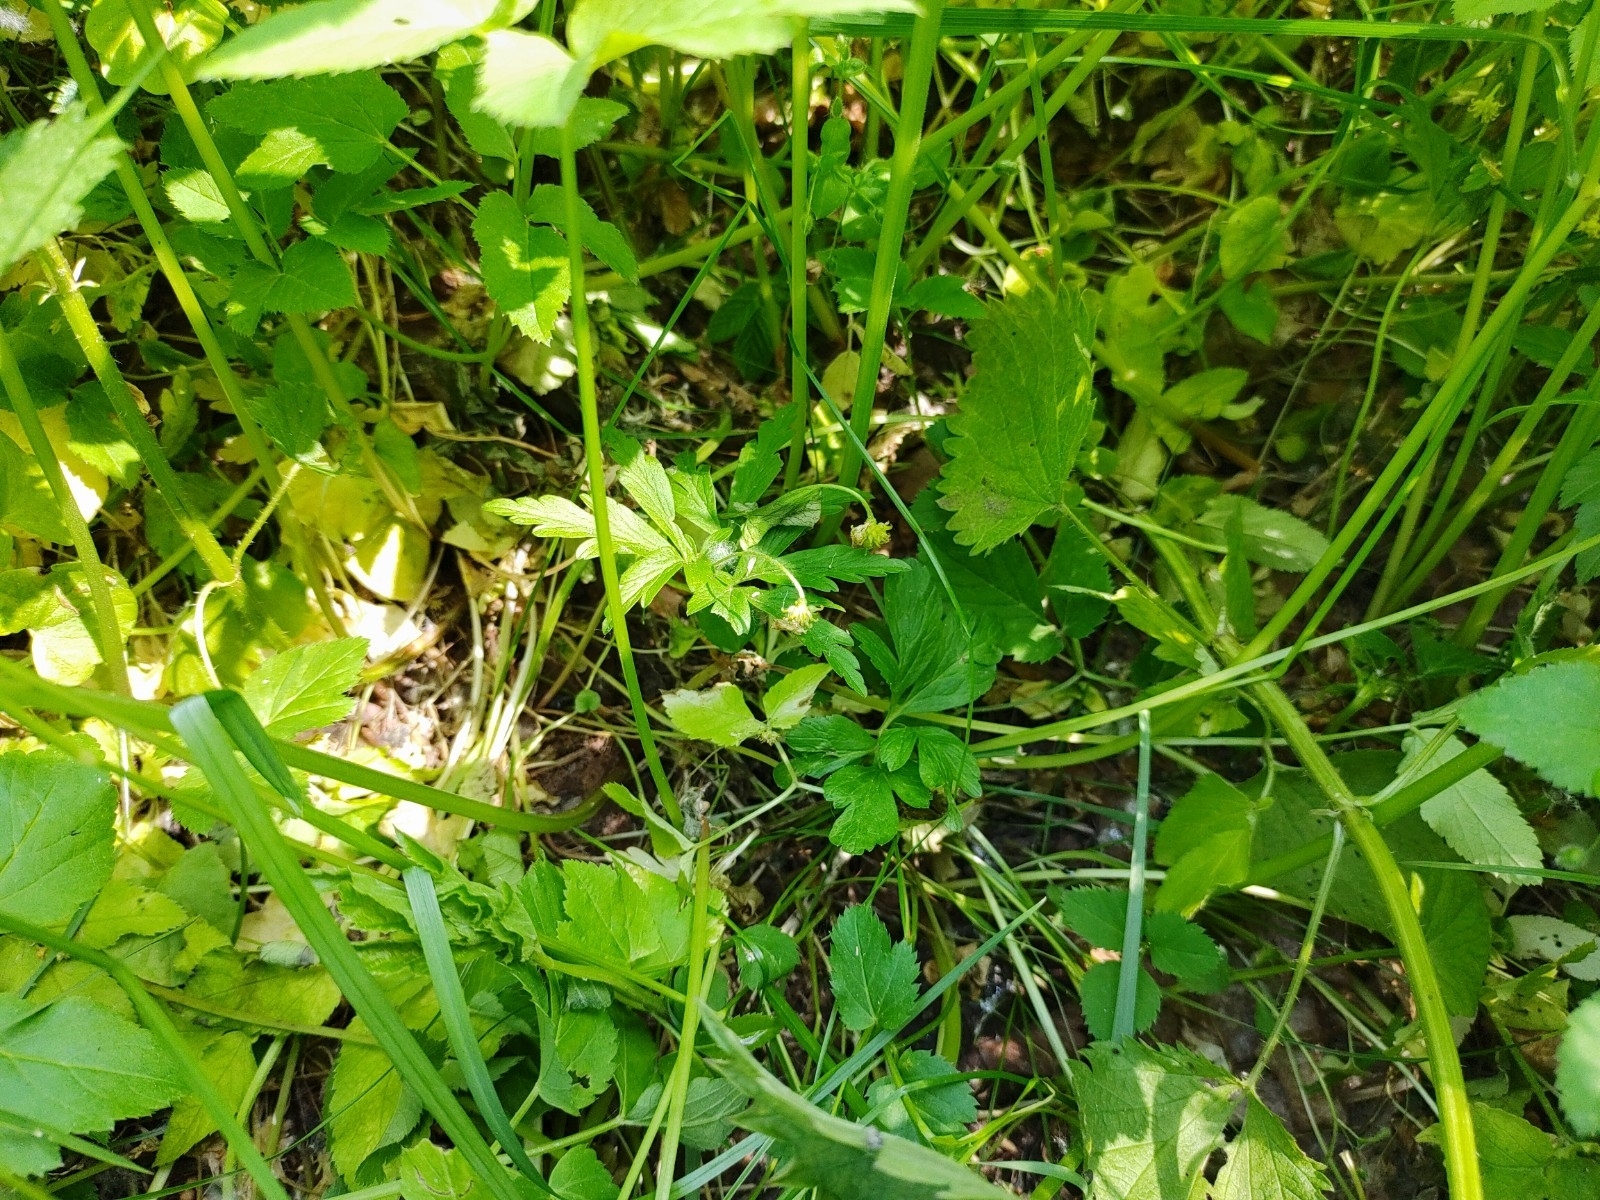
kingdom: Plantae
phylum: Tracheophyta
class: Magnoliopsida
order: Ranunculales
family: Ranunculaceae
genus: Anemone
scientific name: Anemone ranunculoides
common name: Yellow anemone
